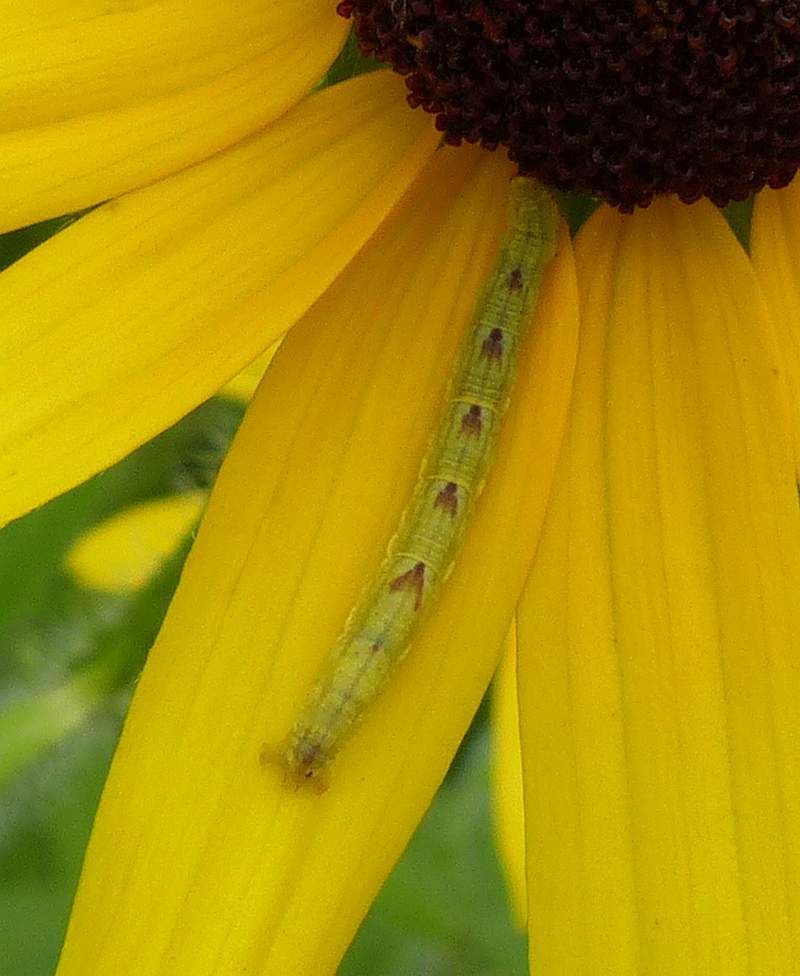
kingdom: Animalia
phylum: Arthropoda
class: Insecta
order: Lepidoptera
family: Geometridae
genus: Eupithecia
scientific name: Eupithecia miserulata
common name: Common eupithecia
